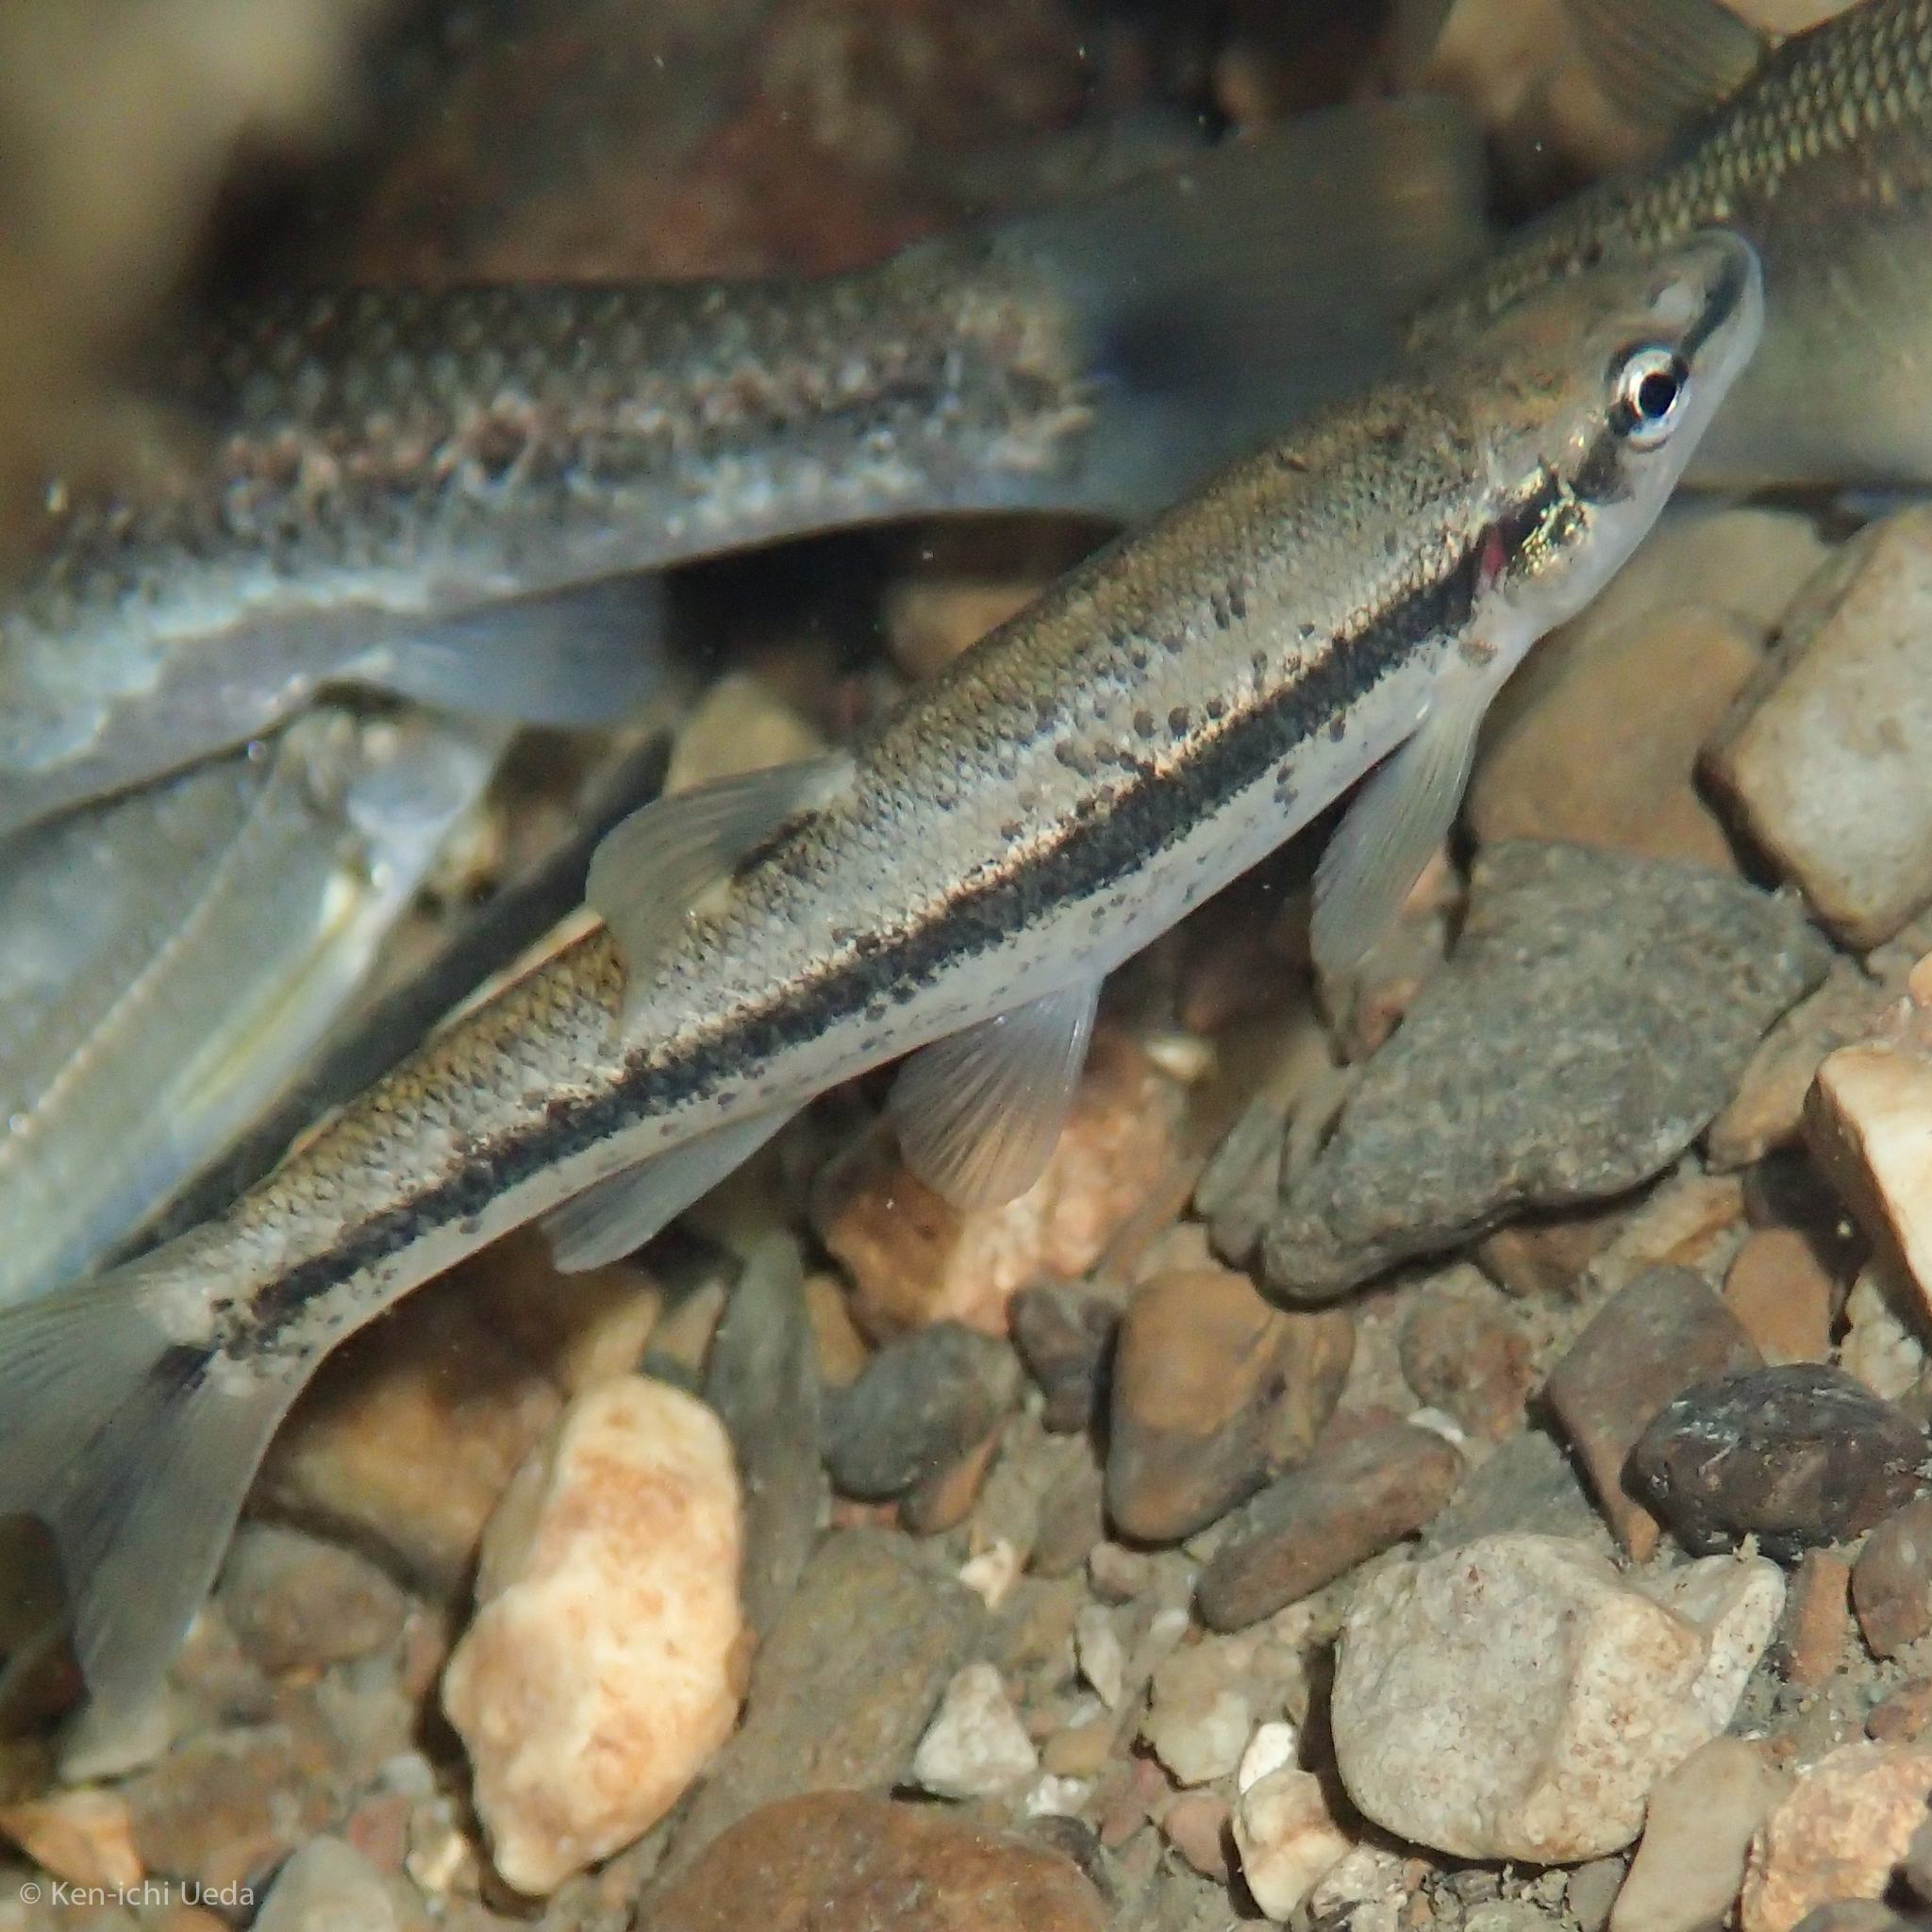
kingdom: Animalia
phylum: Chordata
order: Cypriniformes
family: Cyprinidae
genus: Rhinichthys
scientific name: Rhinichthys obtusus
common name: Western blacknose dace
